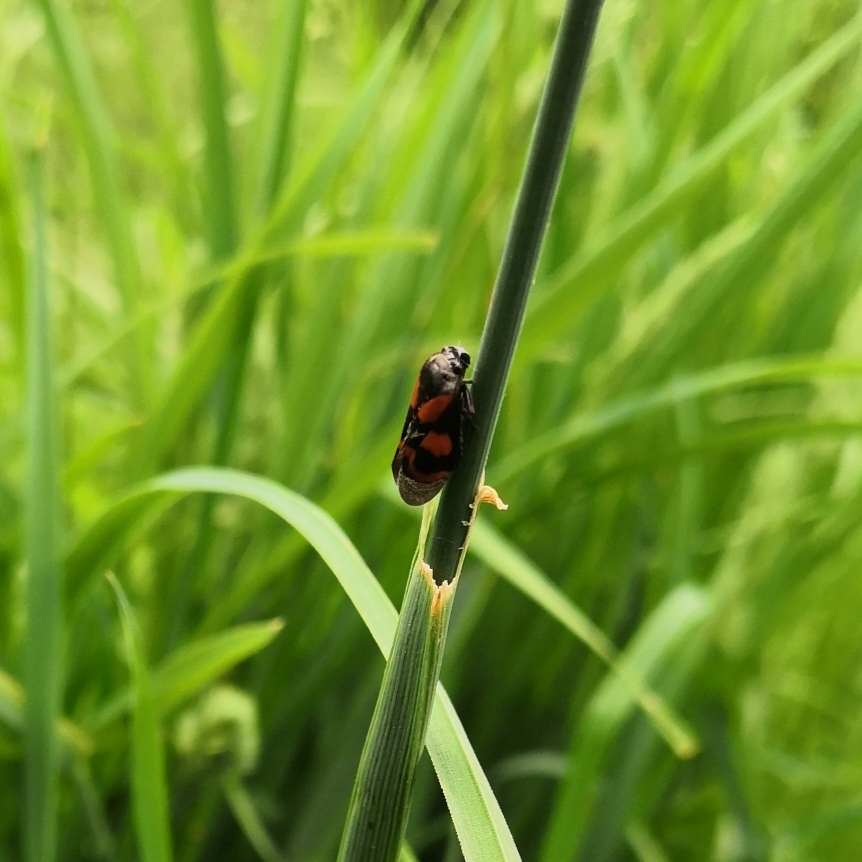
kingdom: Animalia
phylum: Arthropoda
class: Insecta
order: Hemiptera
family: Cercopidae
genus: Cercopis
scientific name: Cercopis vulnerata
